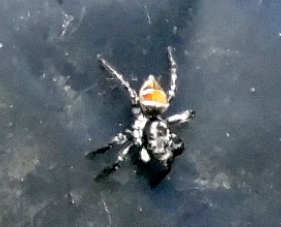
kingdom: Animalia
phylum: Arthropoda
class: Arachnida
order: Araneae
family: Salticidae
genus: Corythalia
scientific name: Corythalia
